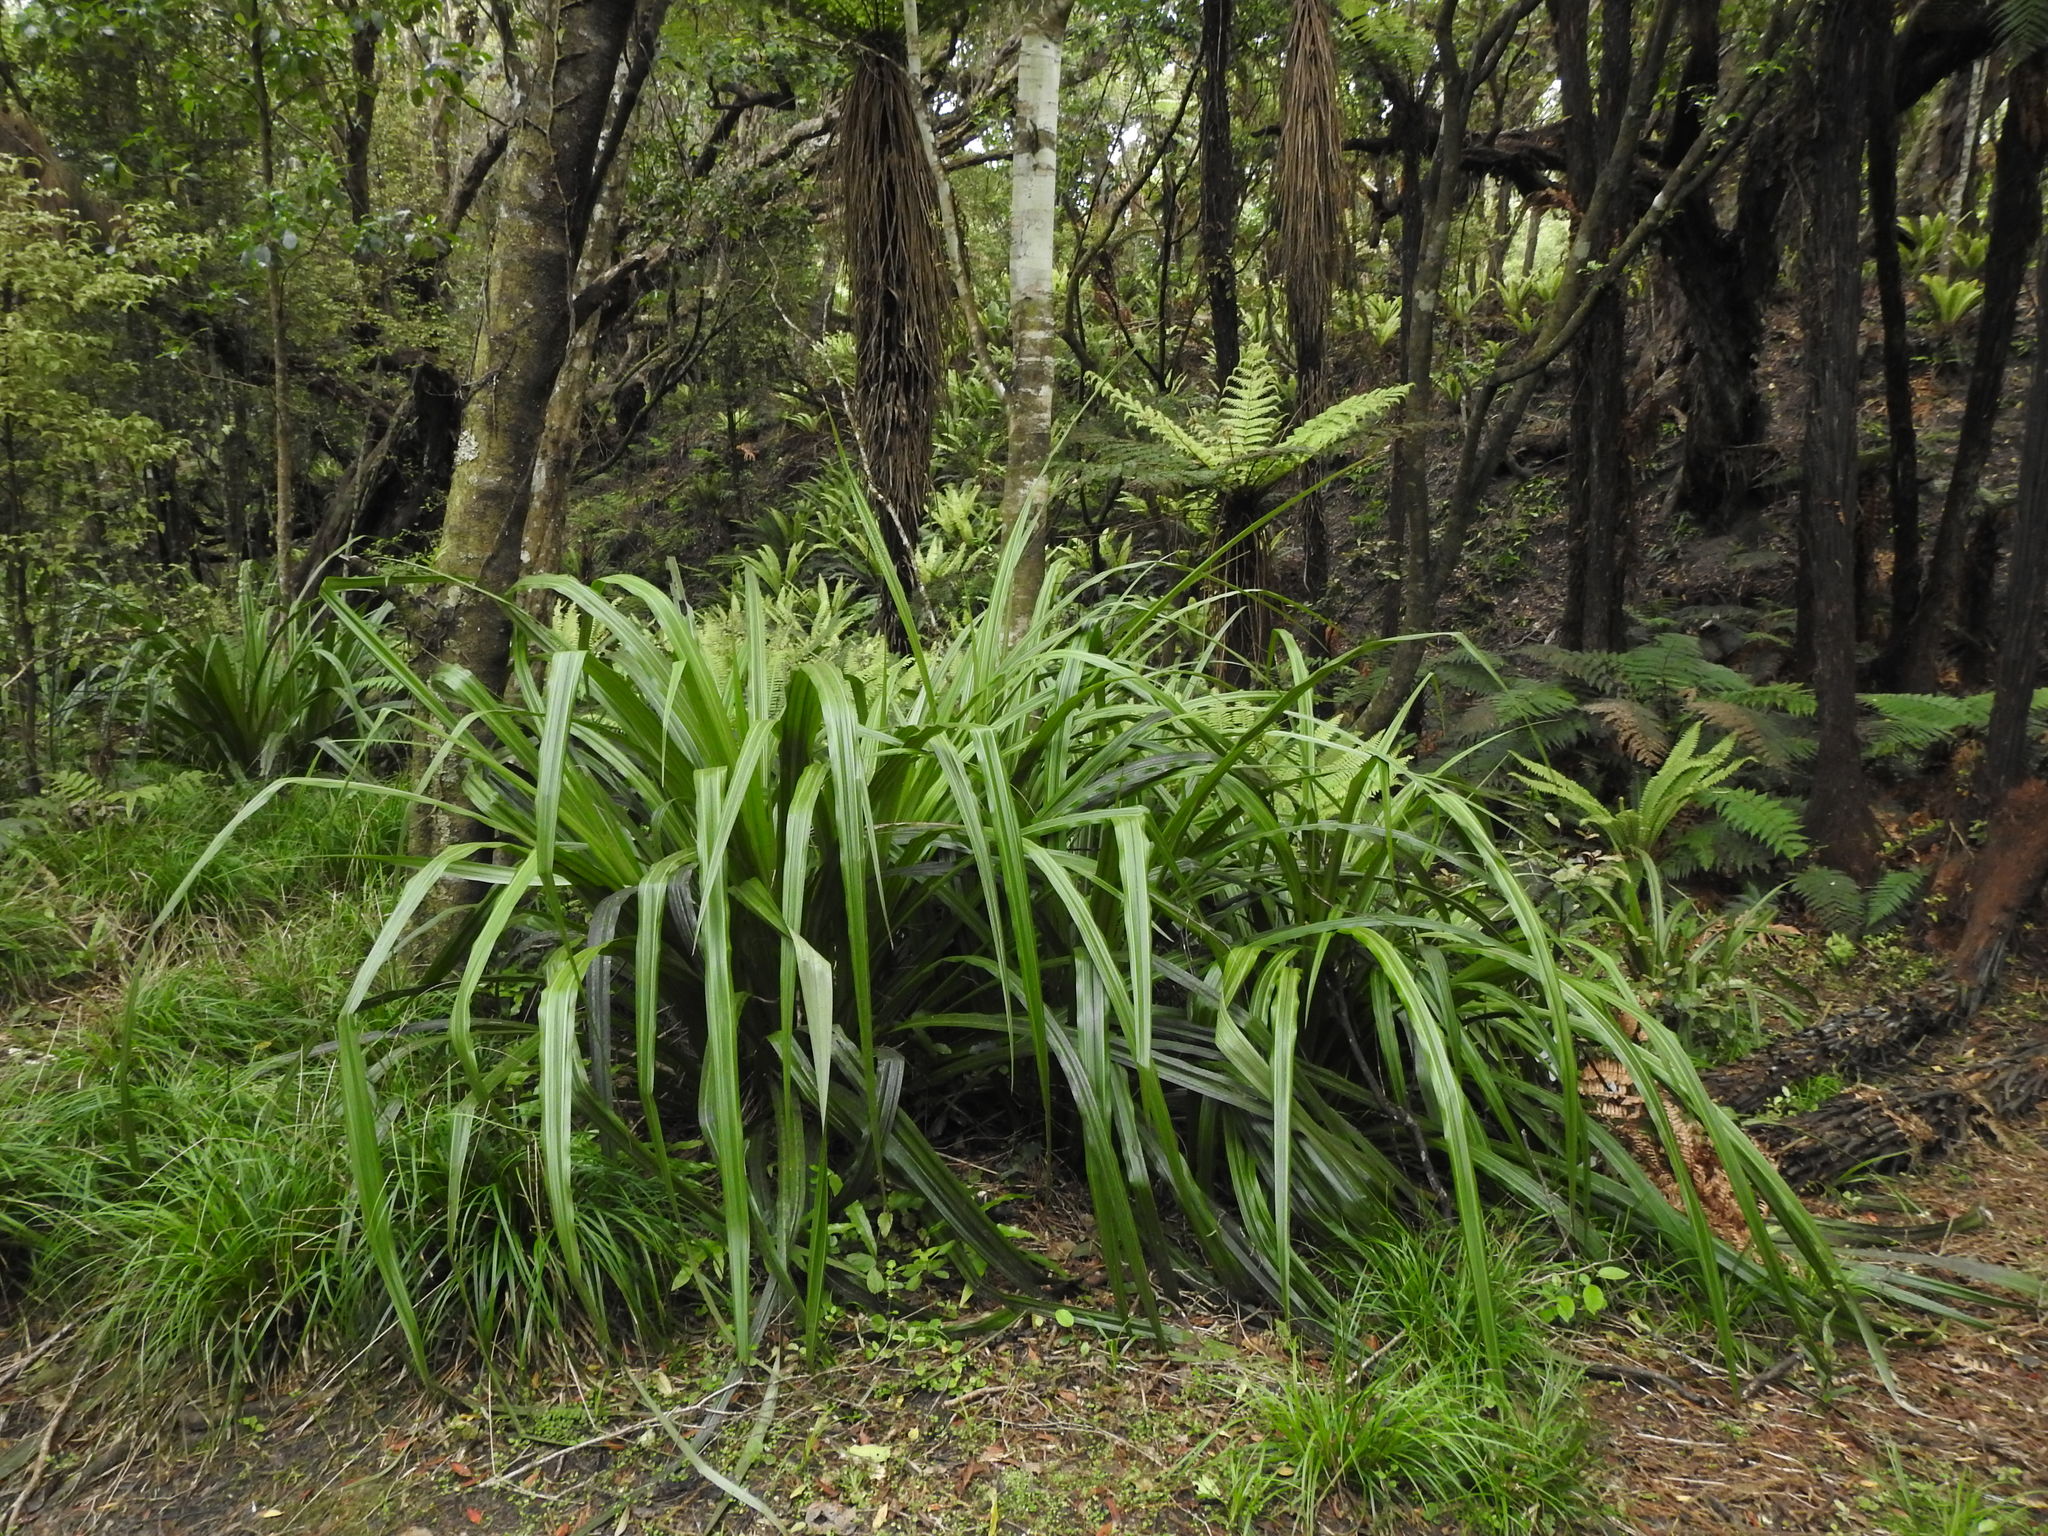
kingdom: Plantae
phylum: Tracheophyta
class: Liliopsida
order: Asparagales
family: Asteliaceae
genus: Astelia
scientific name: Astelia fragrans
